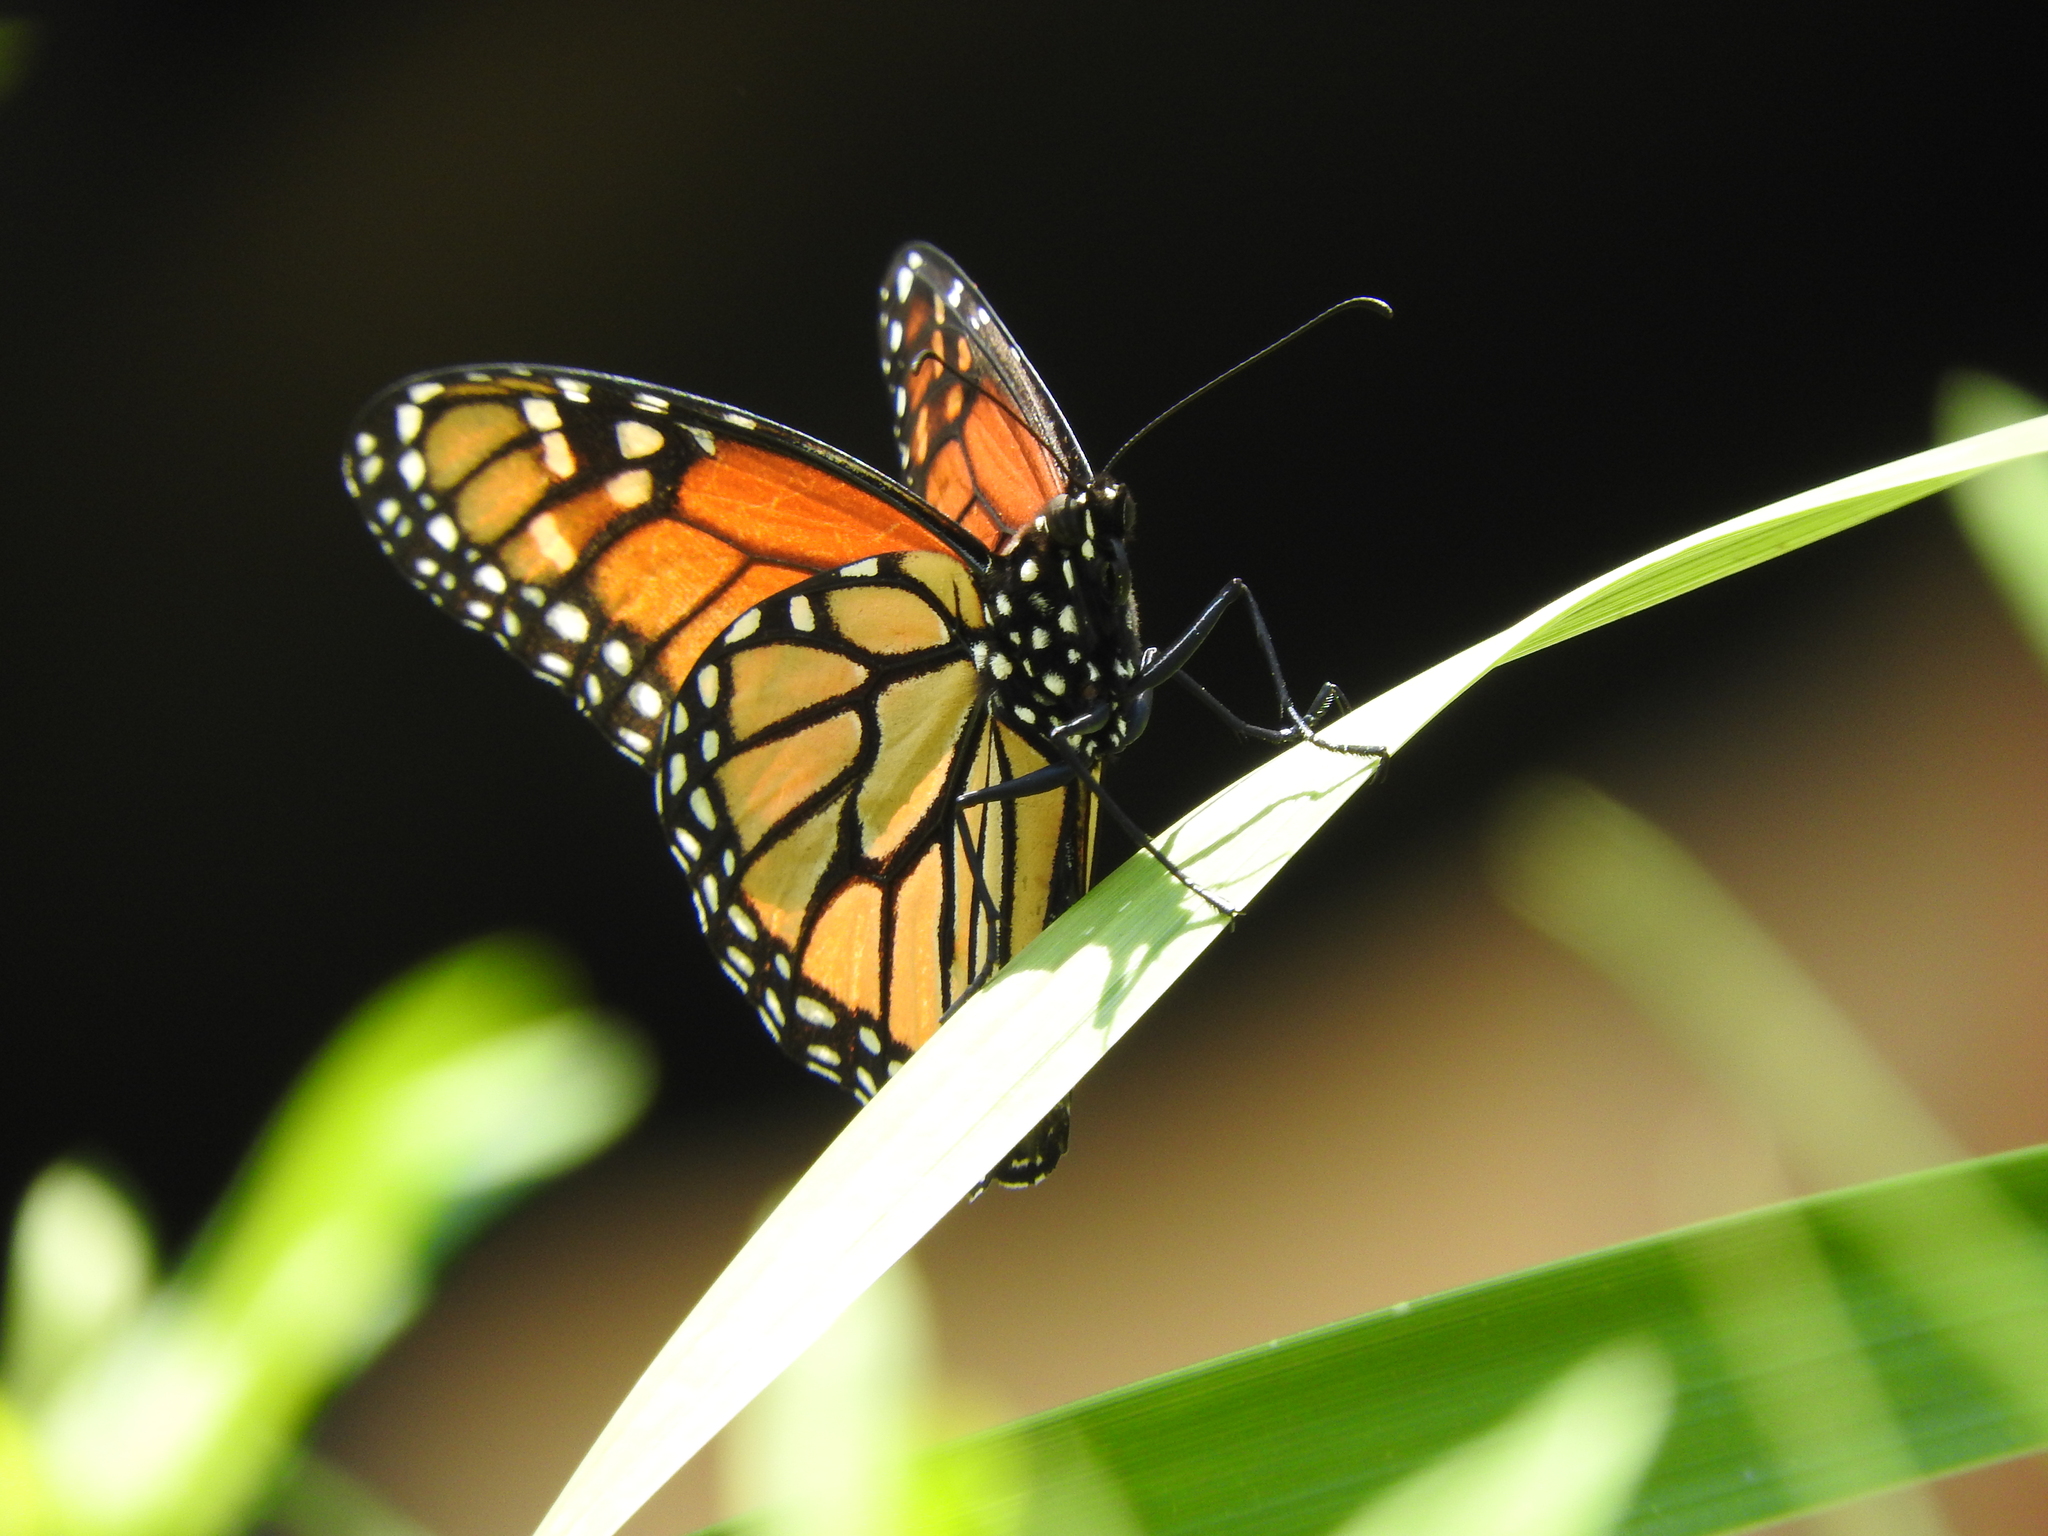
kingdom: Animalia
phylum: Arthropoda
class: Insecta
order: Lepidoptera
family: Nymphalidae
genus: Danaus
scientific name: Danaus plexippus
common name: Monarch
